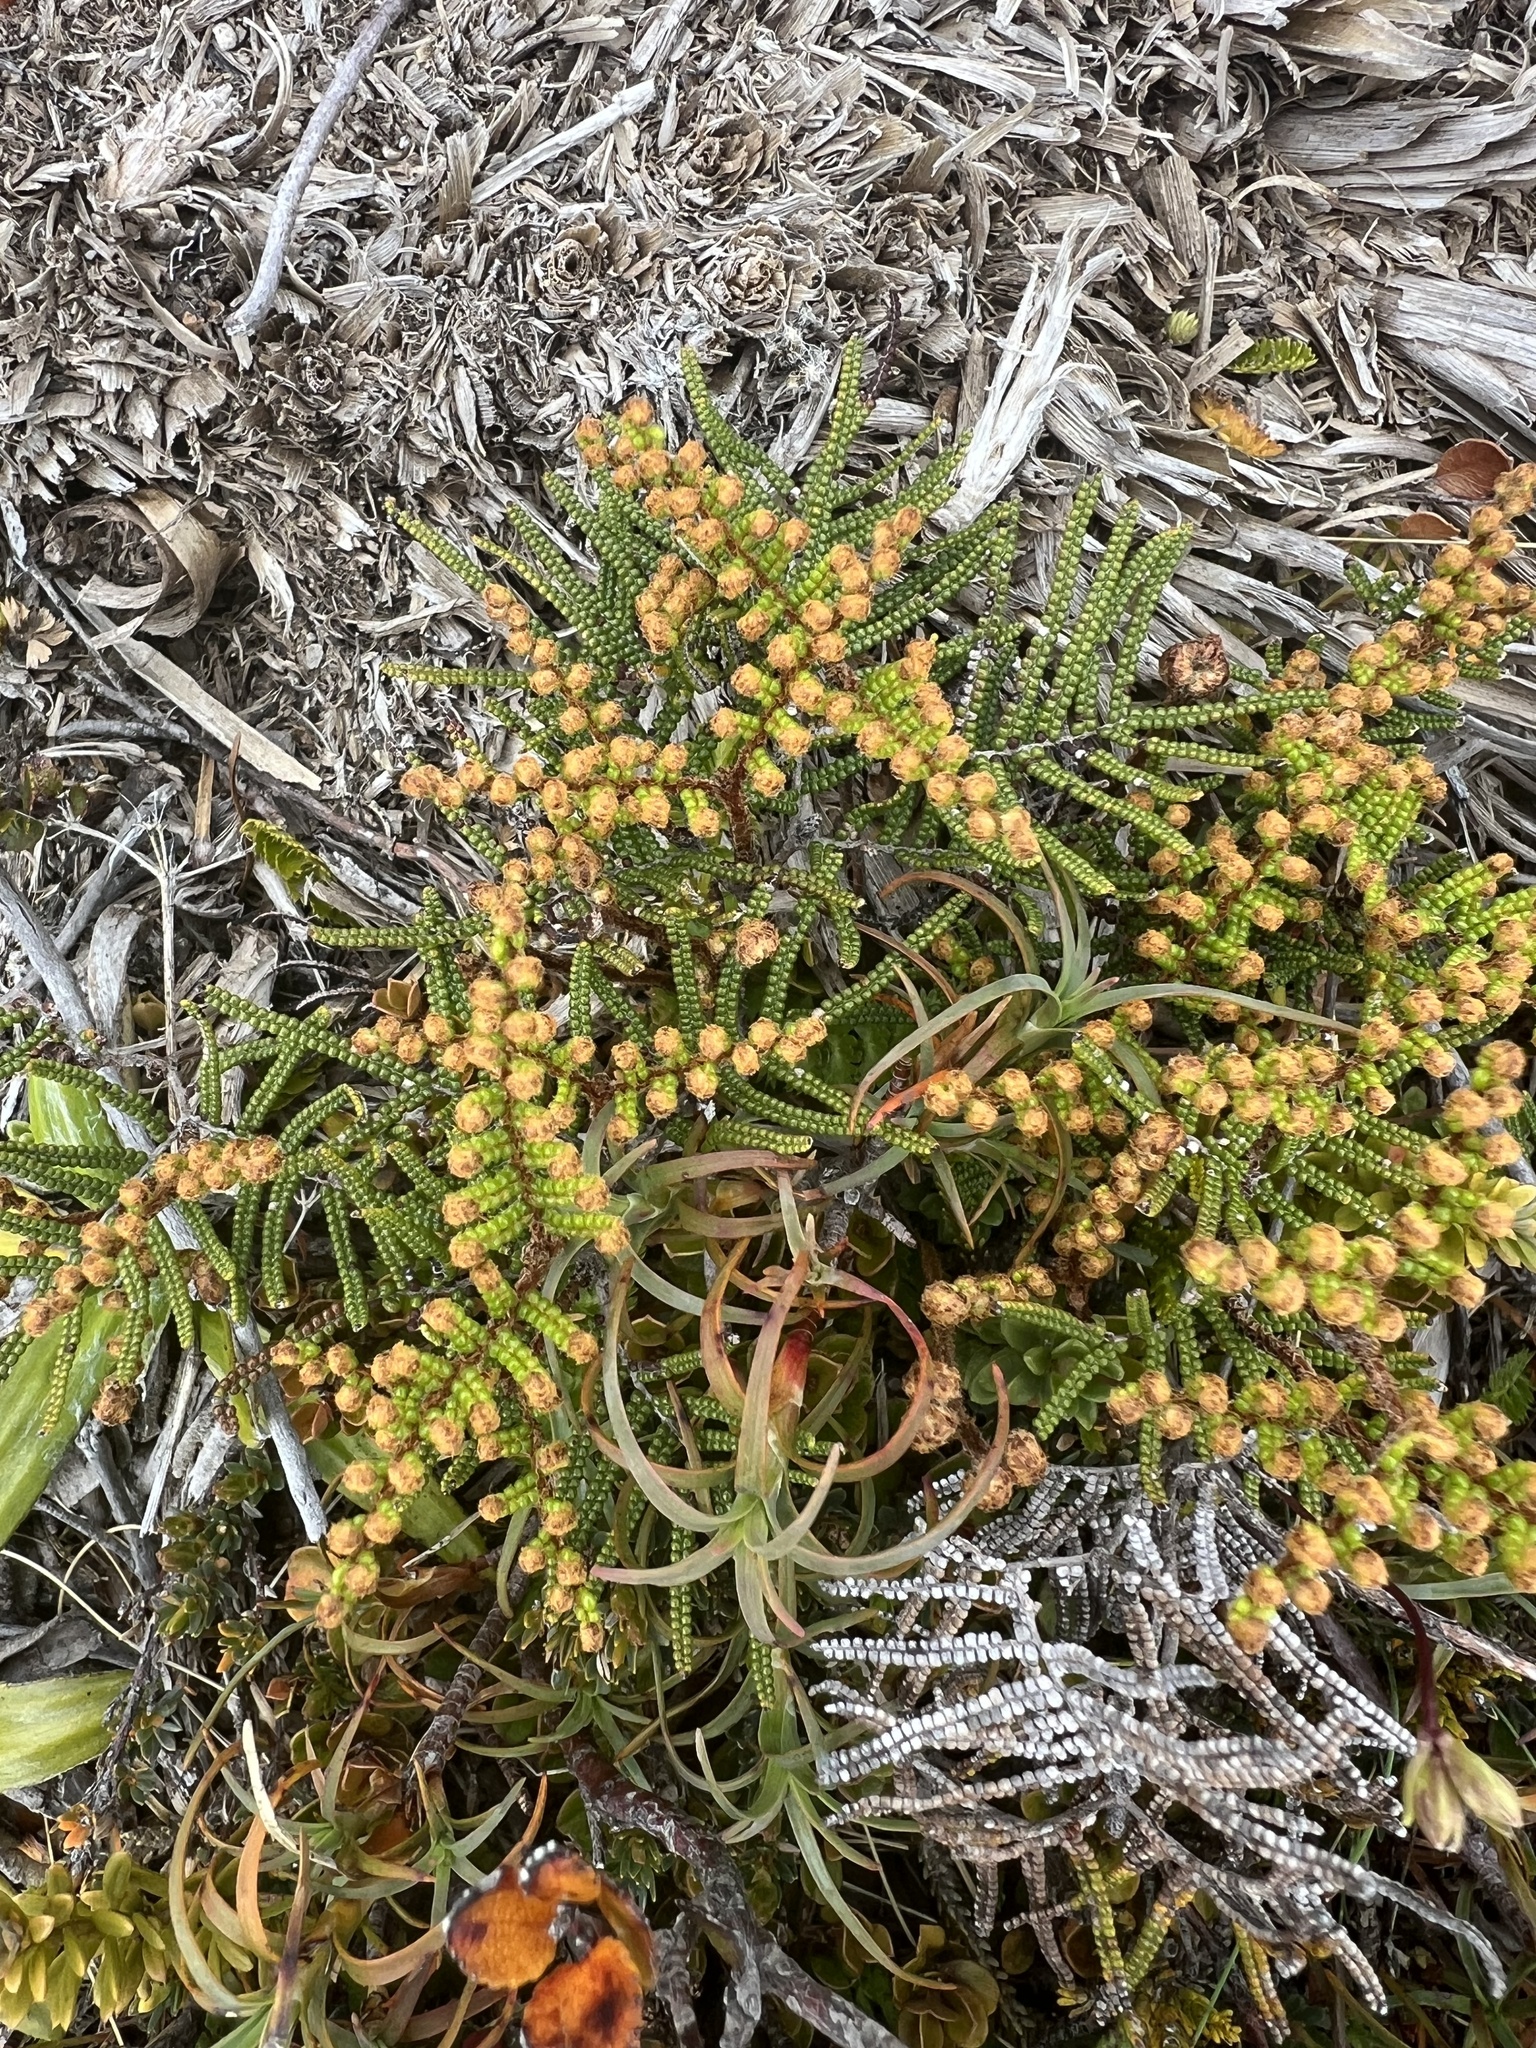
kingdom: Plantae
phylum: Tracheophyta
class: Polypodiopsida
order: Gleicheniales
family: Gleicheniaceae
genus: Gleichenia
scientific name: Gleichenia alpina
